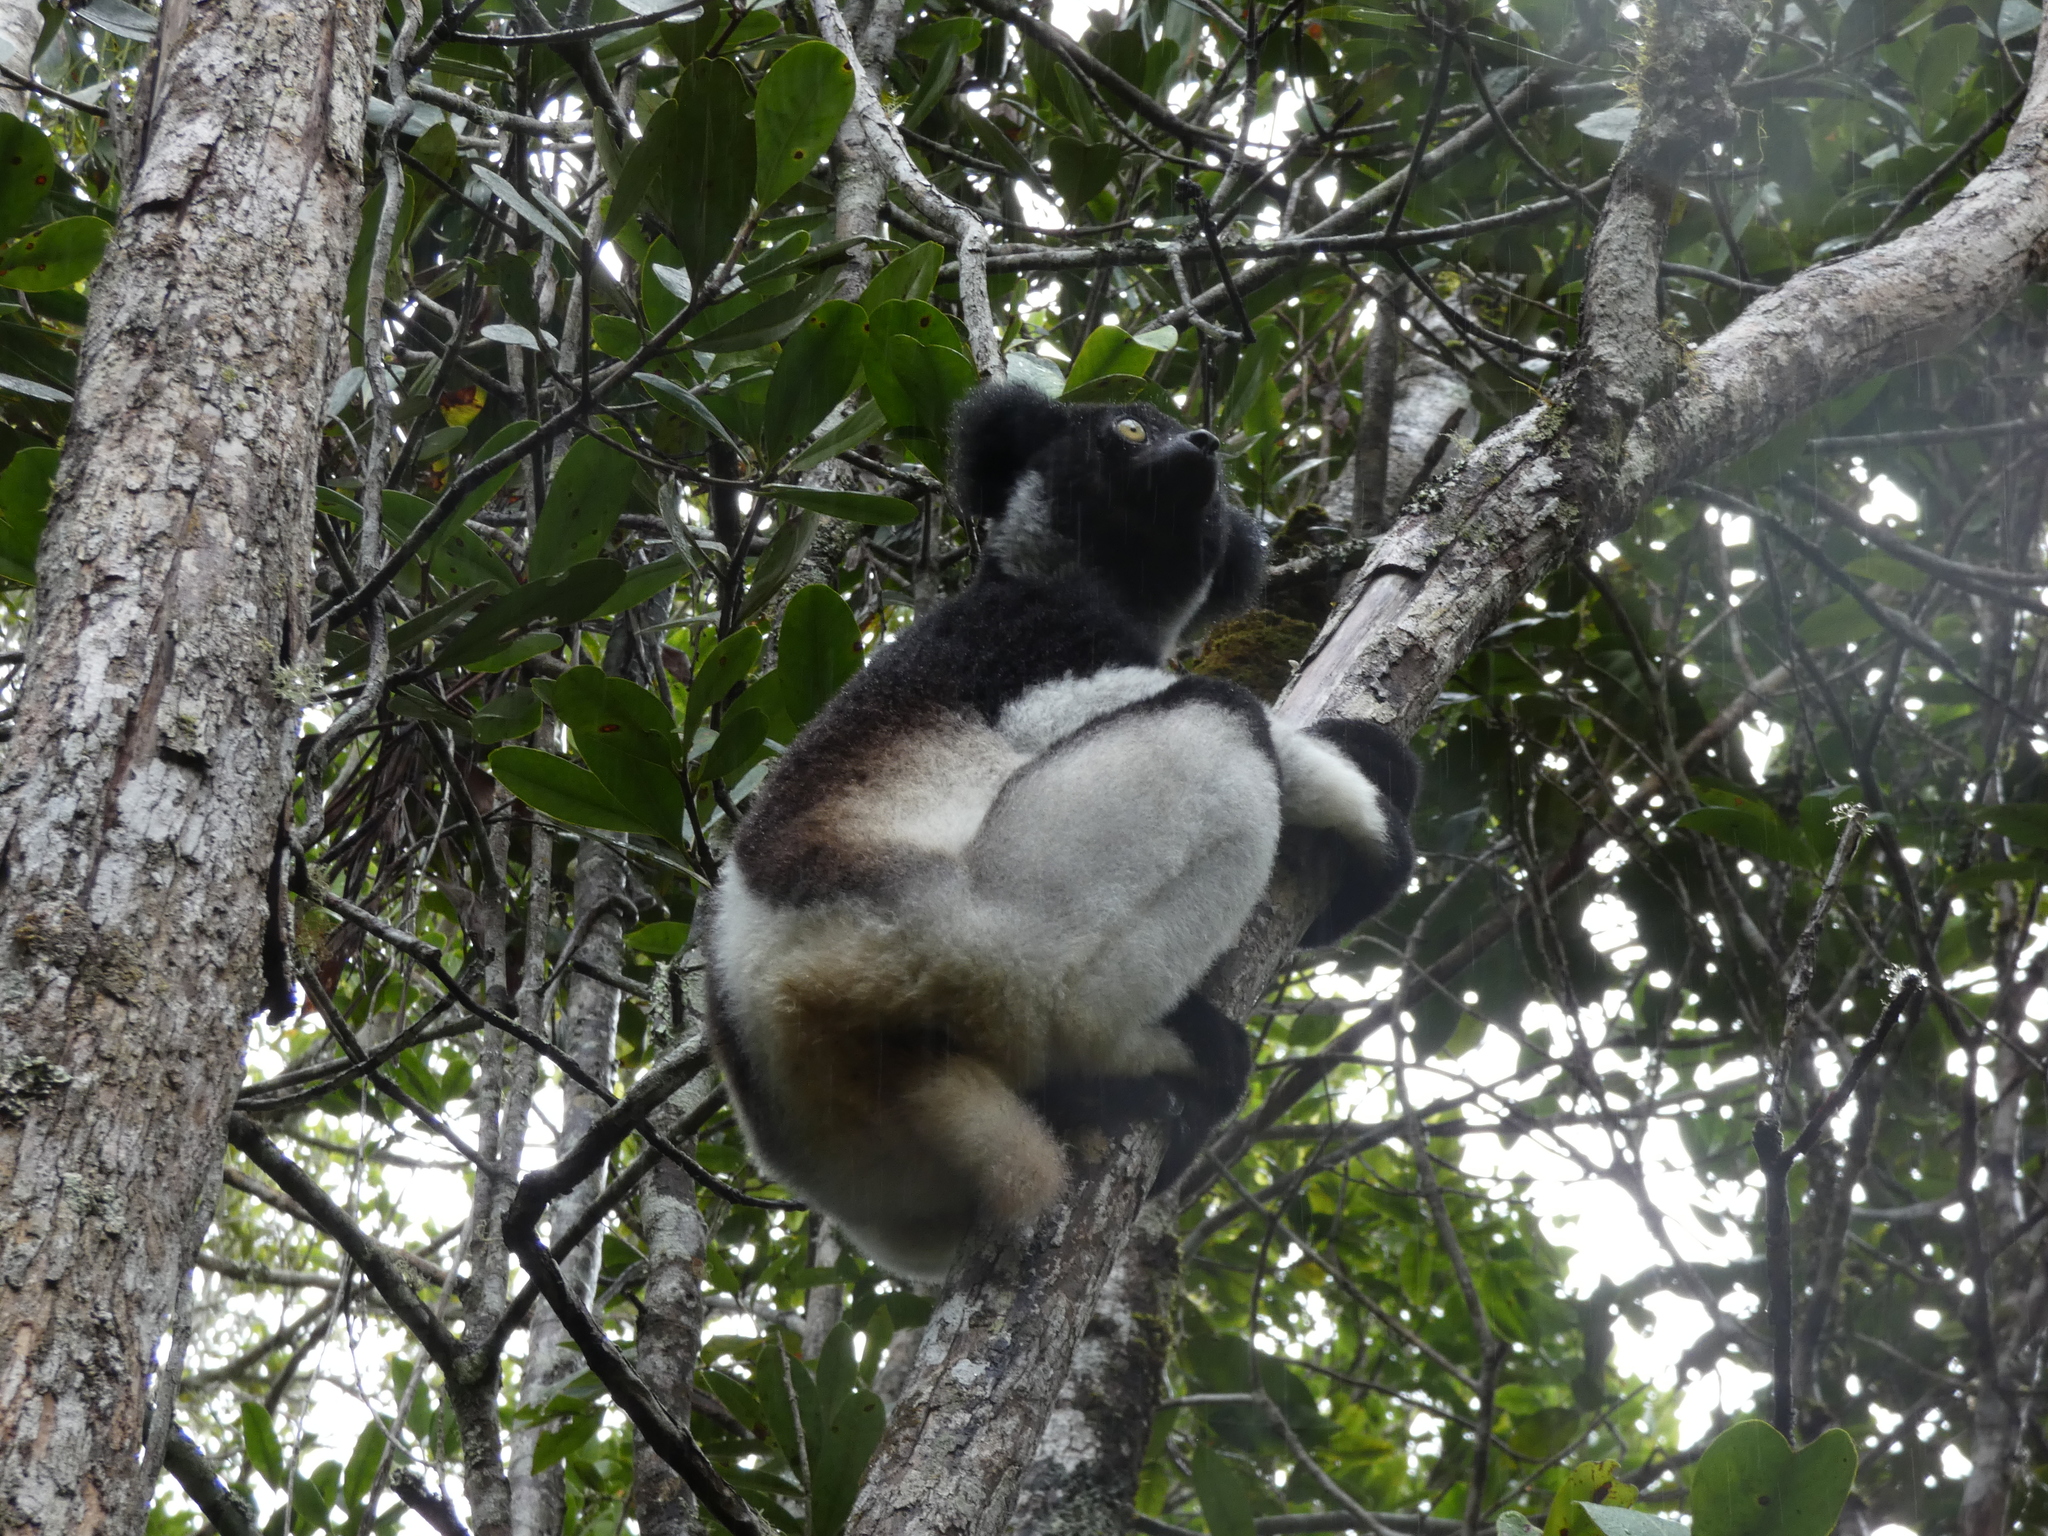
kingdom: Animalia
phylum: Chordata
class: Mammalia
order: Primates
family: Indriidae
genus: Indri
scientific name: Indri indri
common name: Indri
